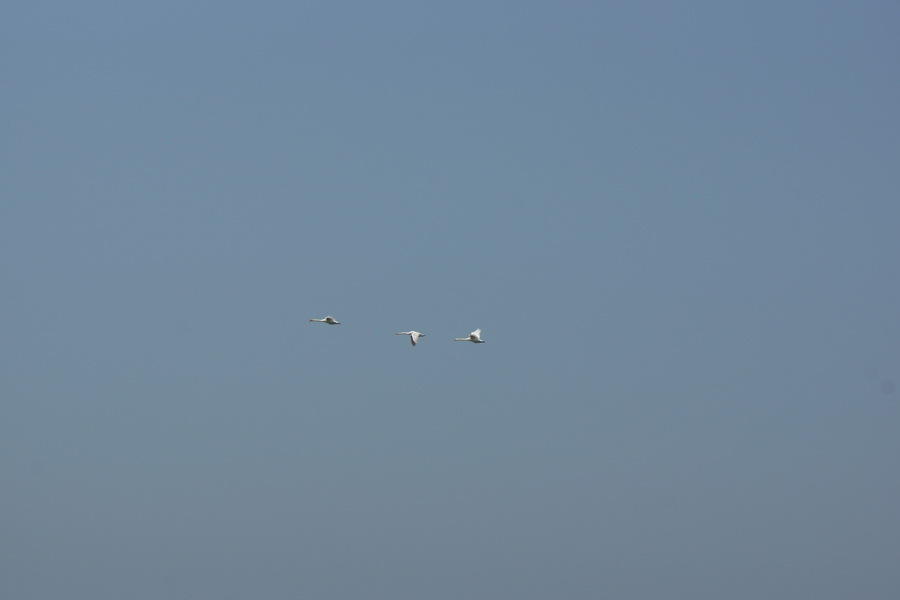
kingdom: Animalia
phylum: Chordata
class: Aves
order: Anseriformes
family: Anatidae
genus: Cygnus
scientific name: Cygnus olor
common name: Mute swan
